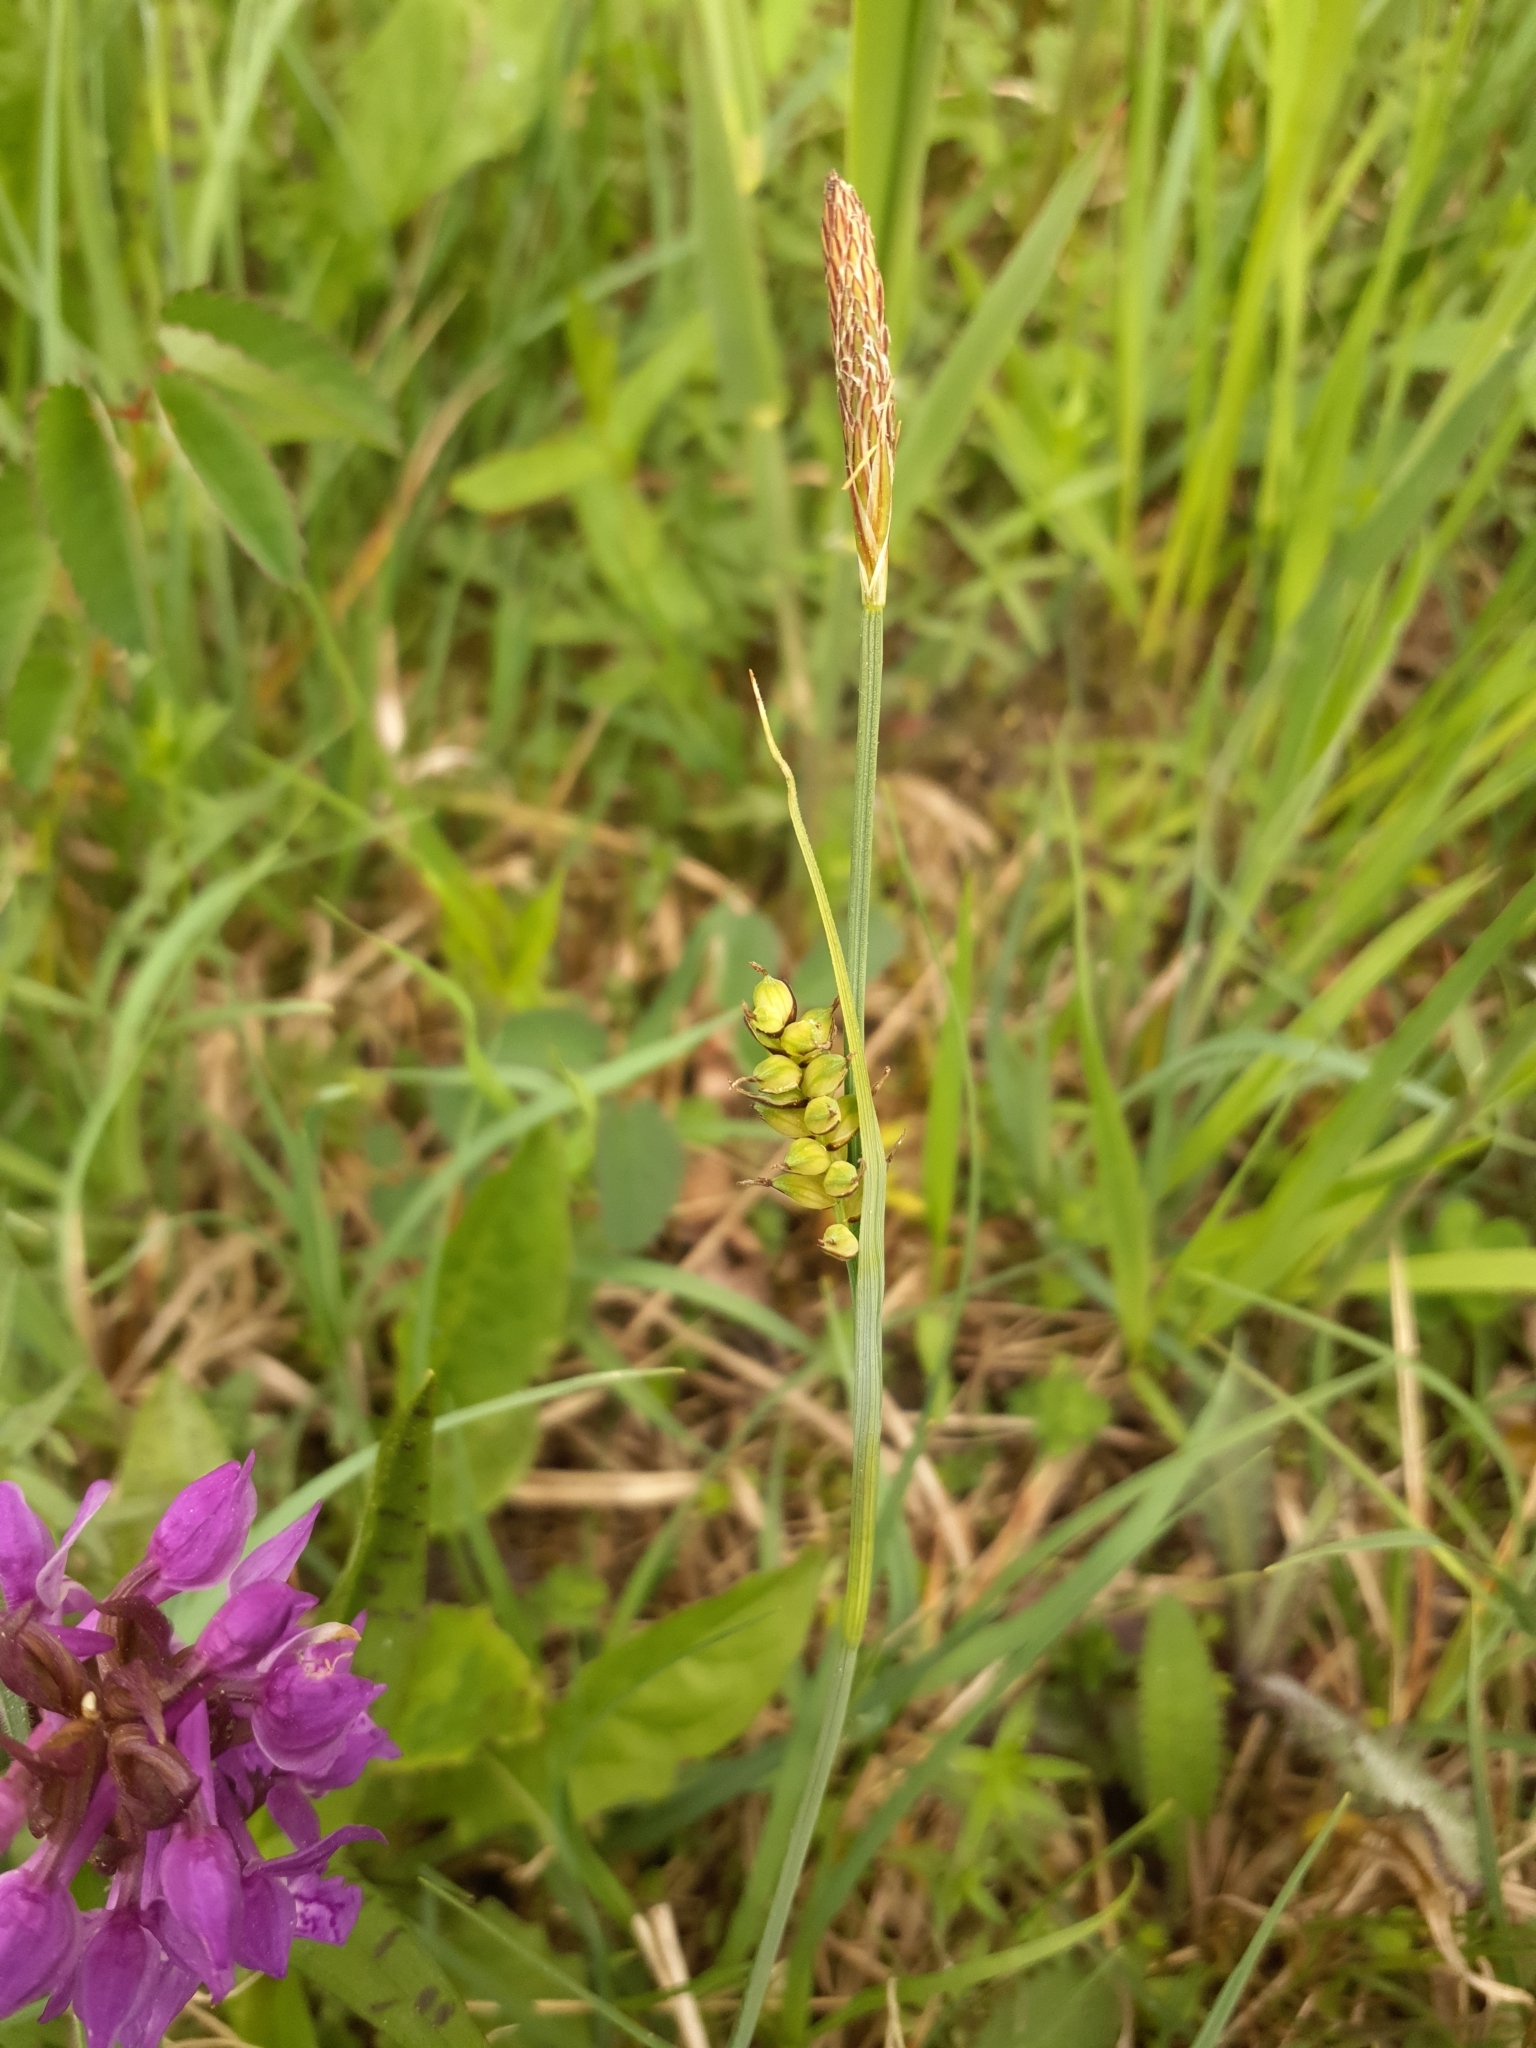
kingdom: Plantae
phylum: Tracheophyta
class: Liliopsida
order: Poales
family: Cyperaceae
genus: Carex
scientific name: Carex panicea
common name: Carnation sedge
